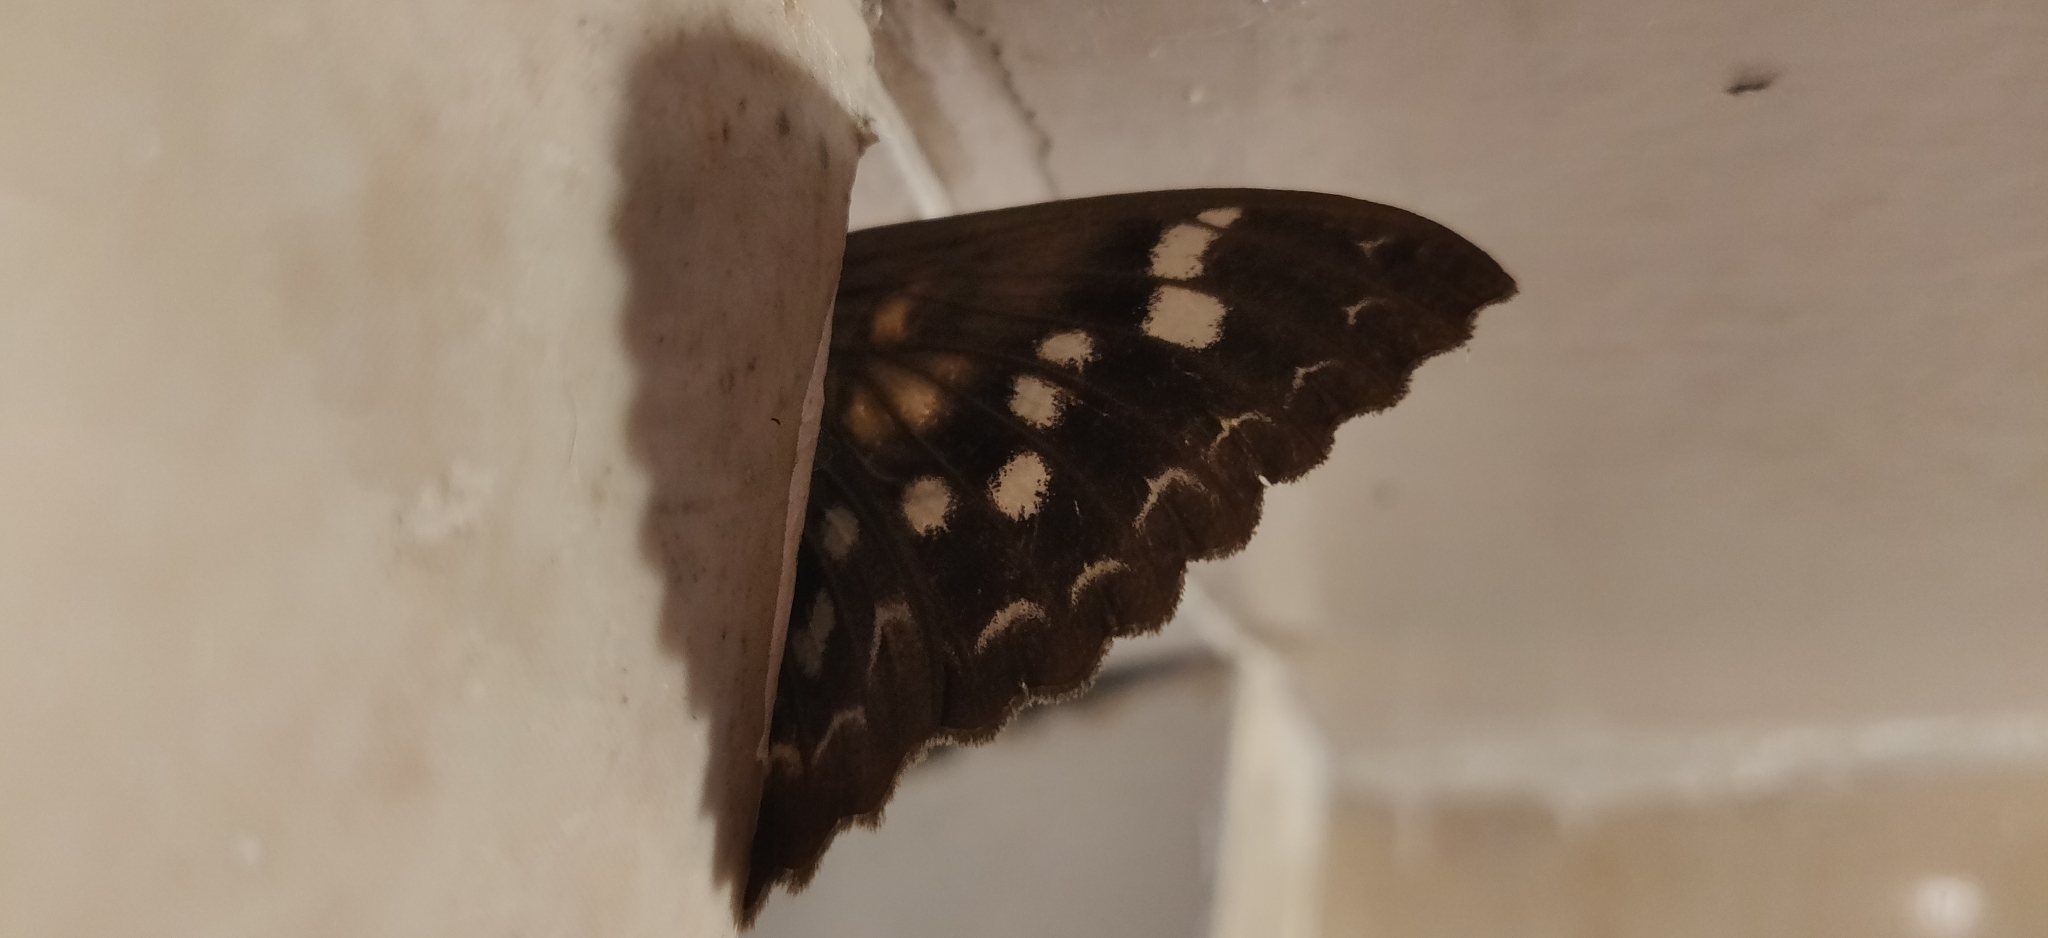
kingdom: Animalia
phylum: Arthropoda
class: Insecta
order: Lepidoptera
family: Erebidae
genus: Erebus
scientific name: Erebus macrops
